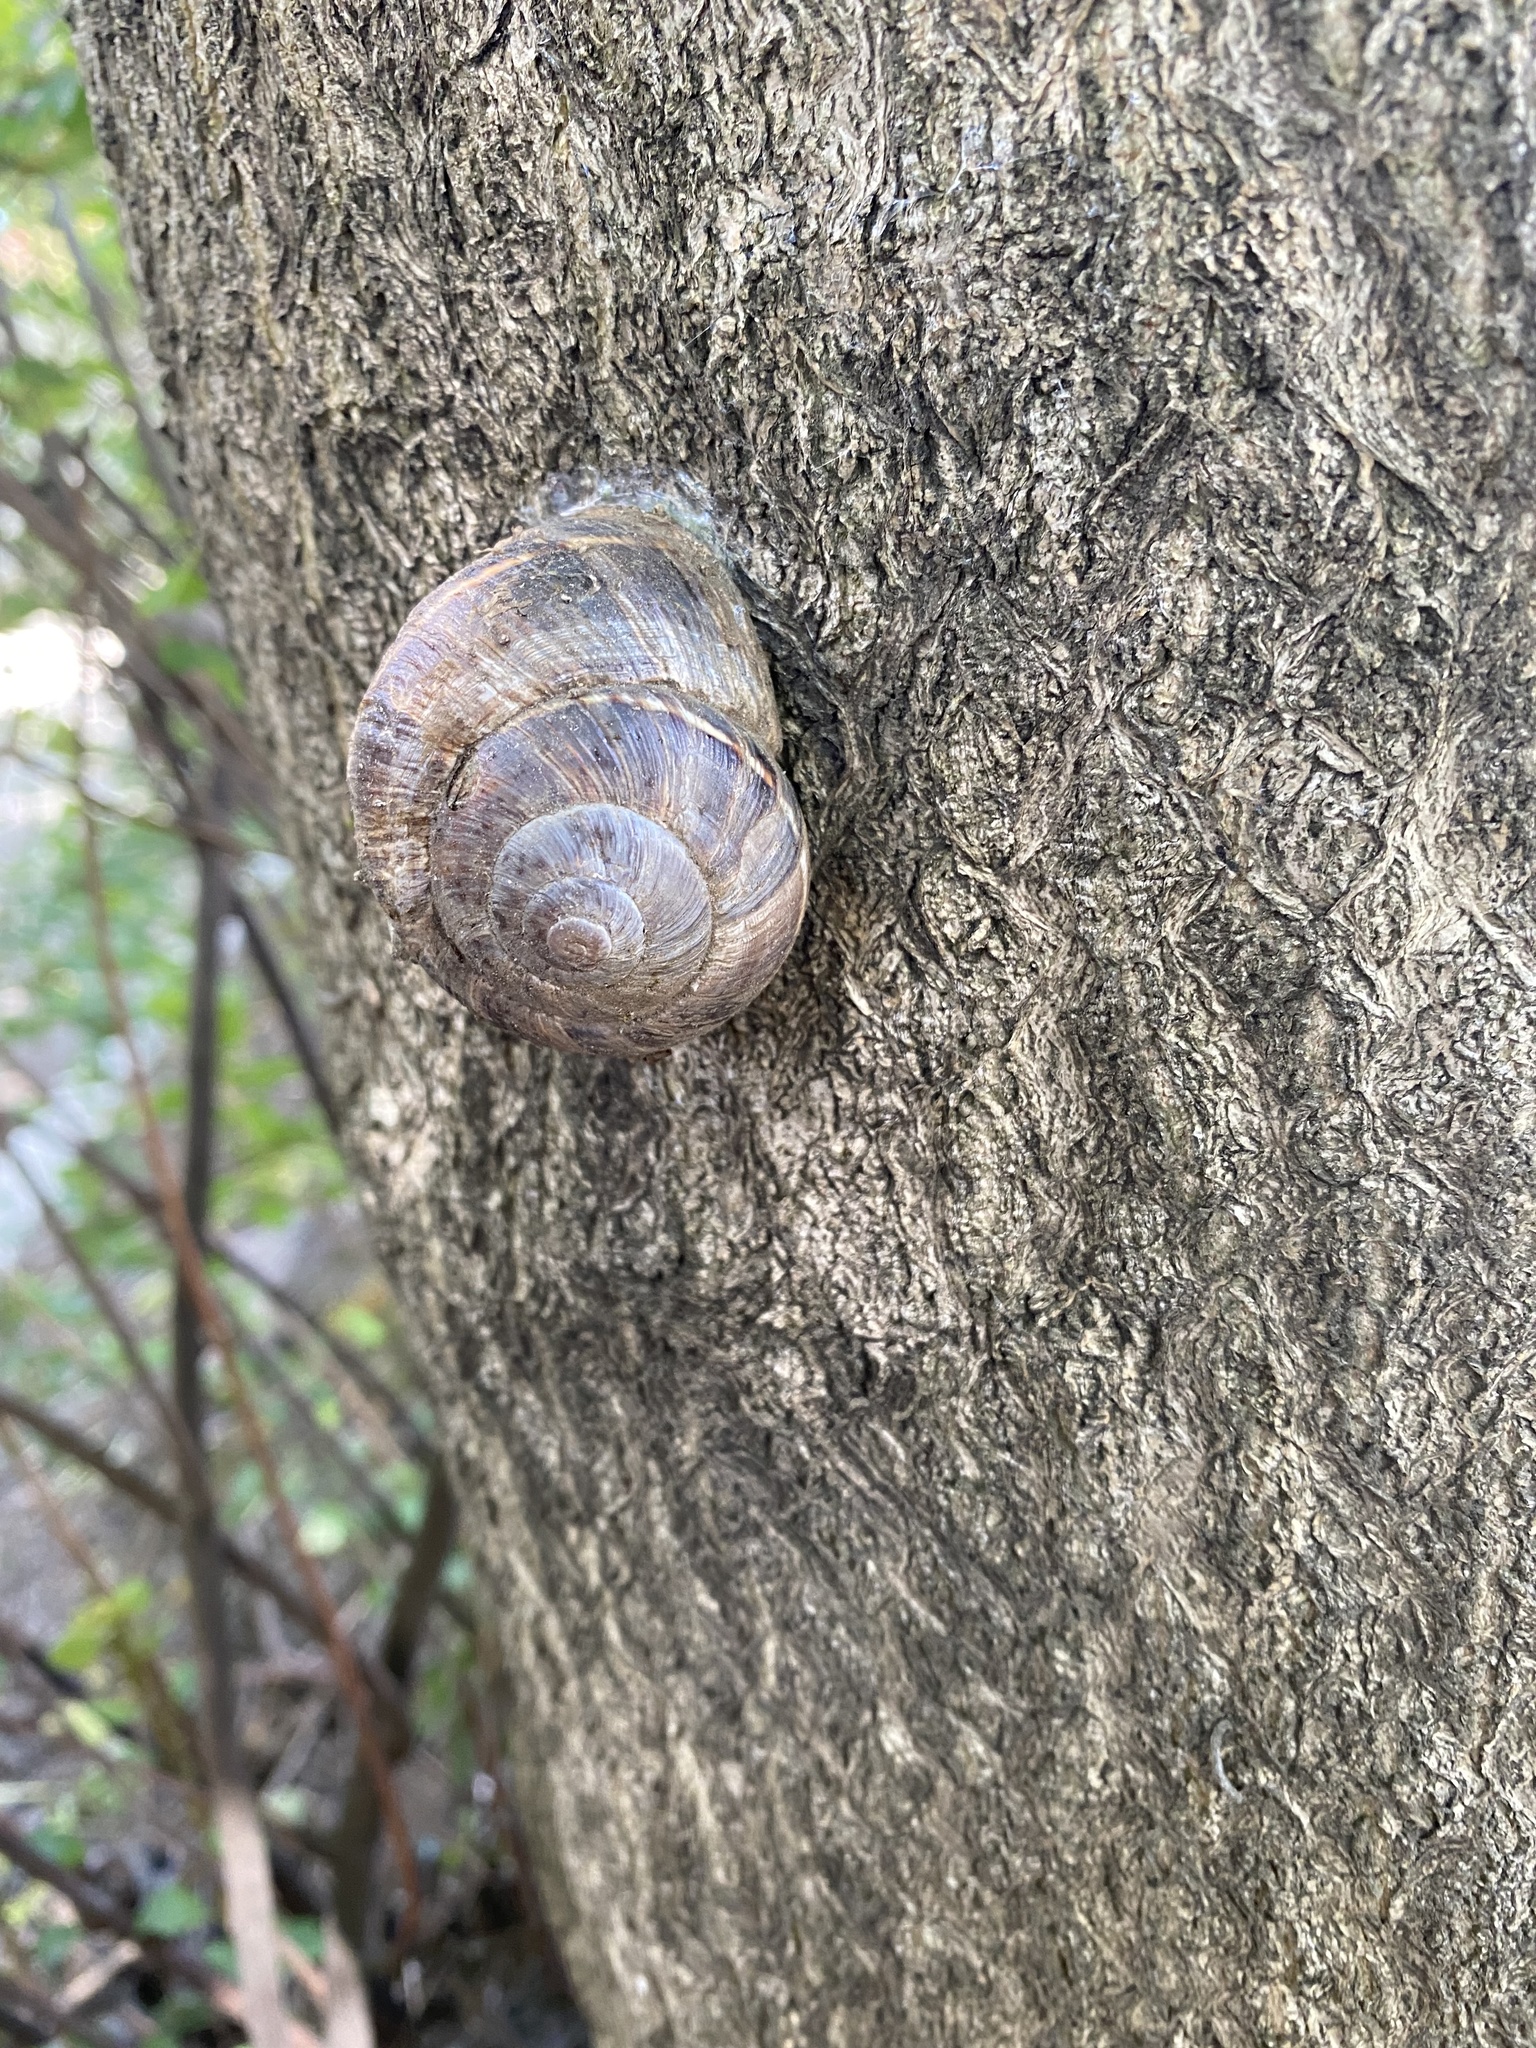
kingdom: Animalia
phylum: Mollusca
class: Gastropoda
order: Stylommatophora
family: Helicidae
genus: Helix
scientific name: Helix lucorum
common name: Turkish snail
